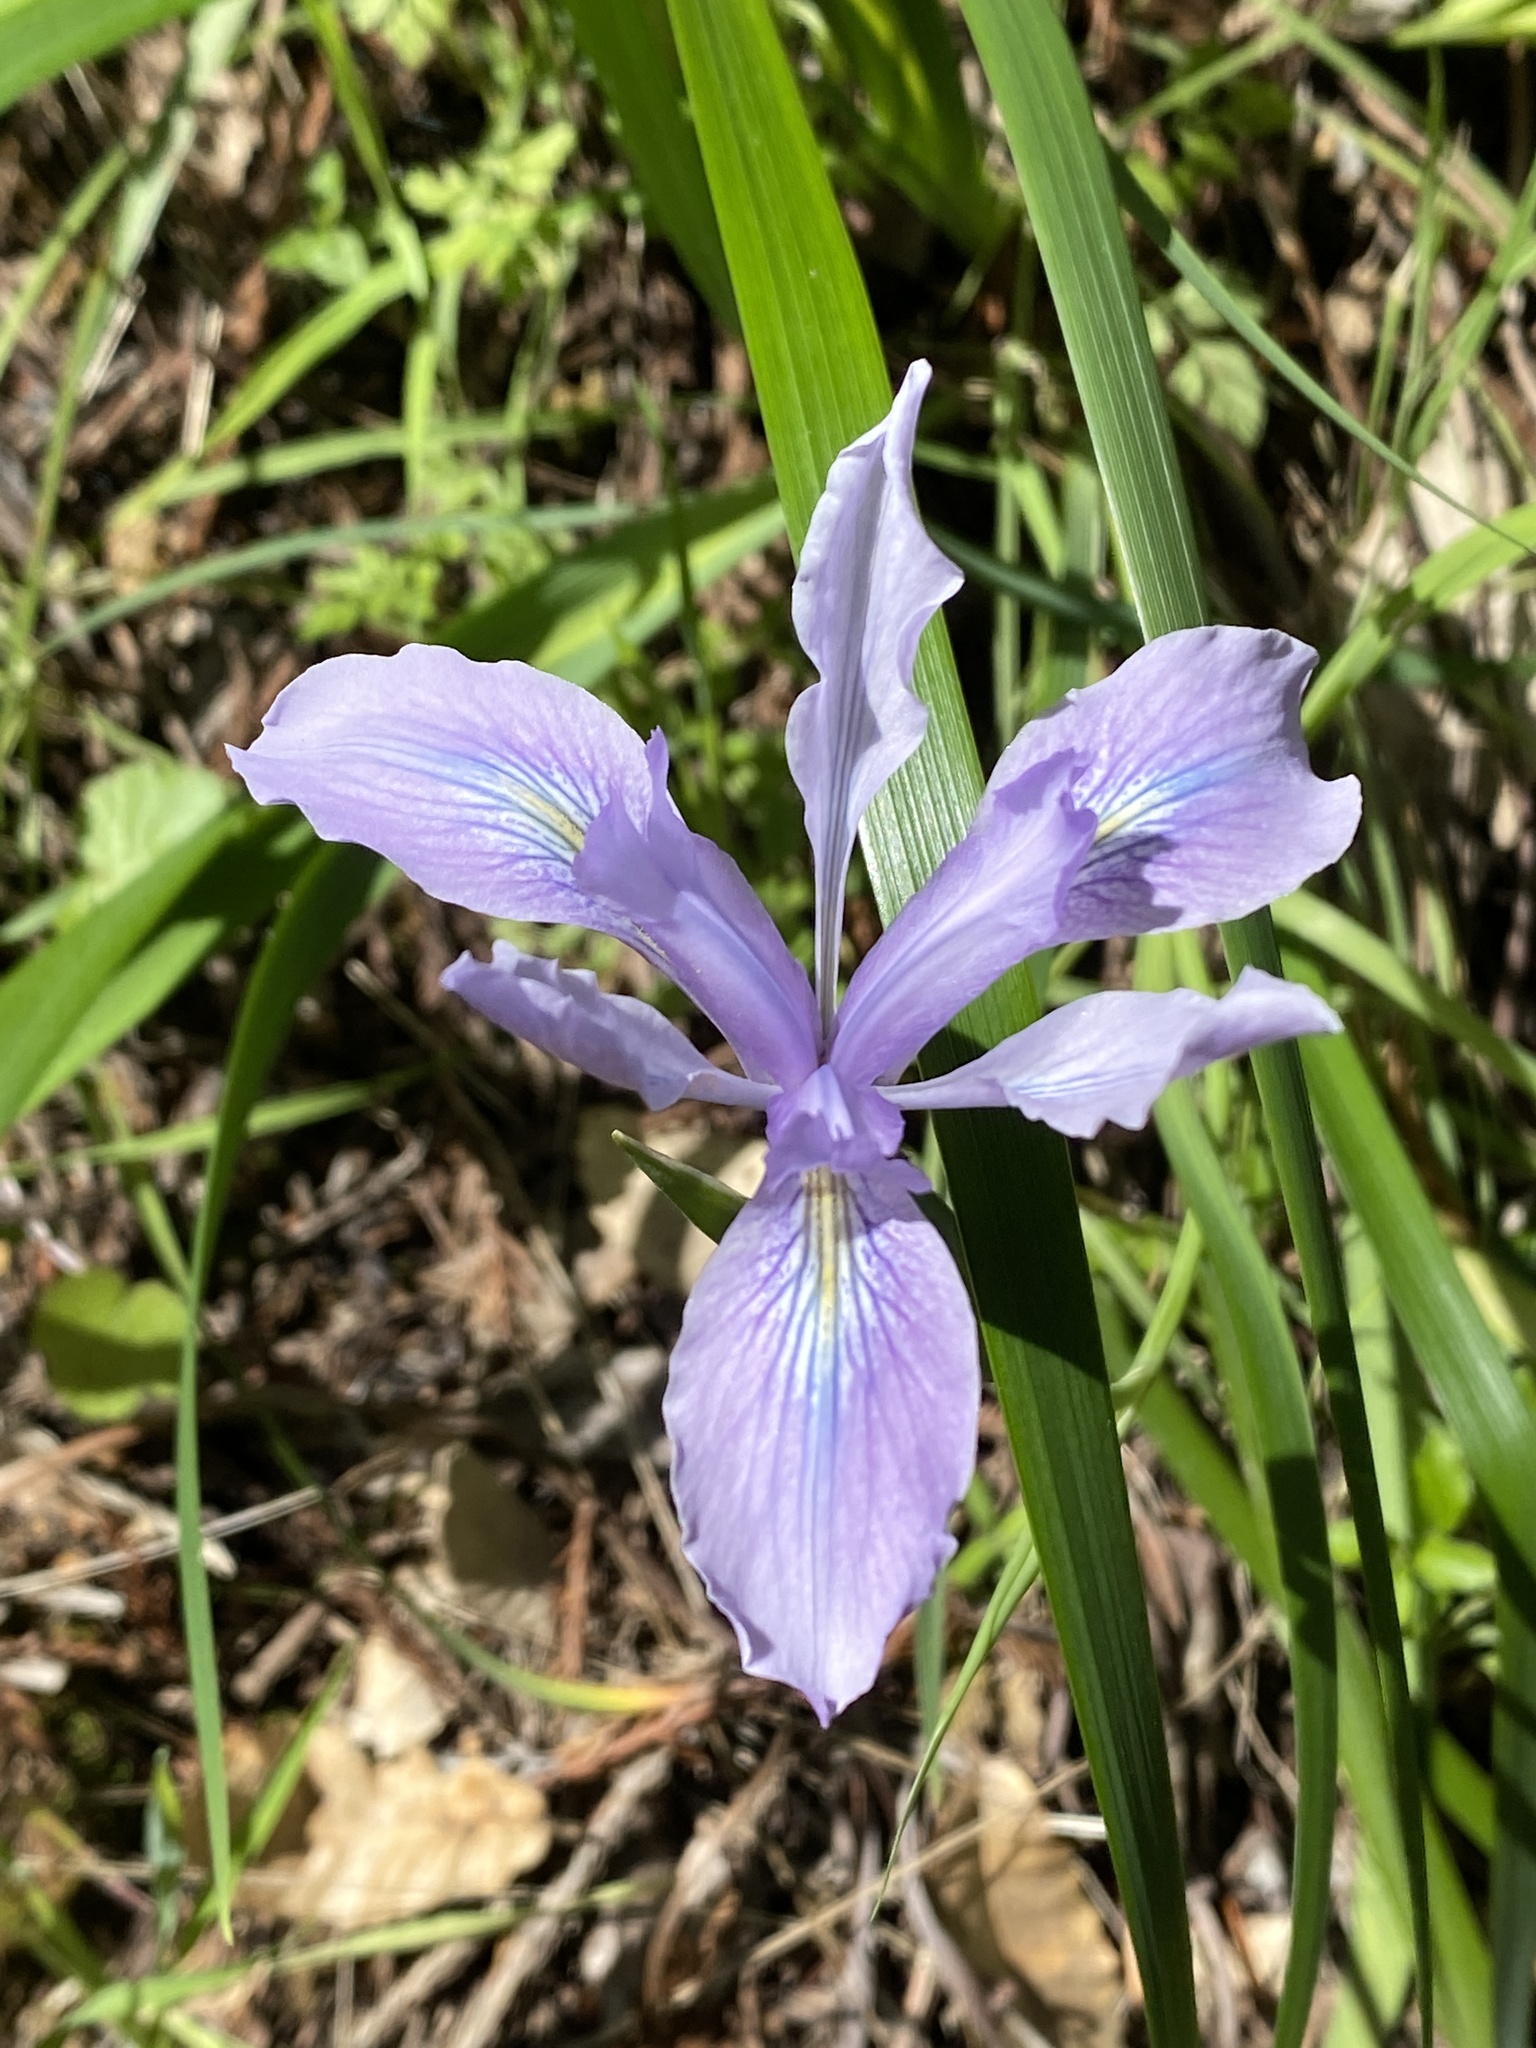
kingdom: Plantae
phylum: Tracheophyta
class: Liliopsida
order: Asparagales
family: Iridaceae
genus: Iris
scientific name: Iris douglasiana
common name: Marin iris
